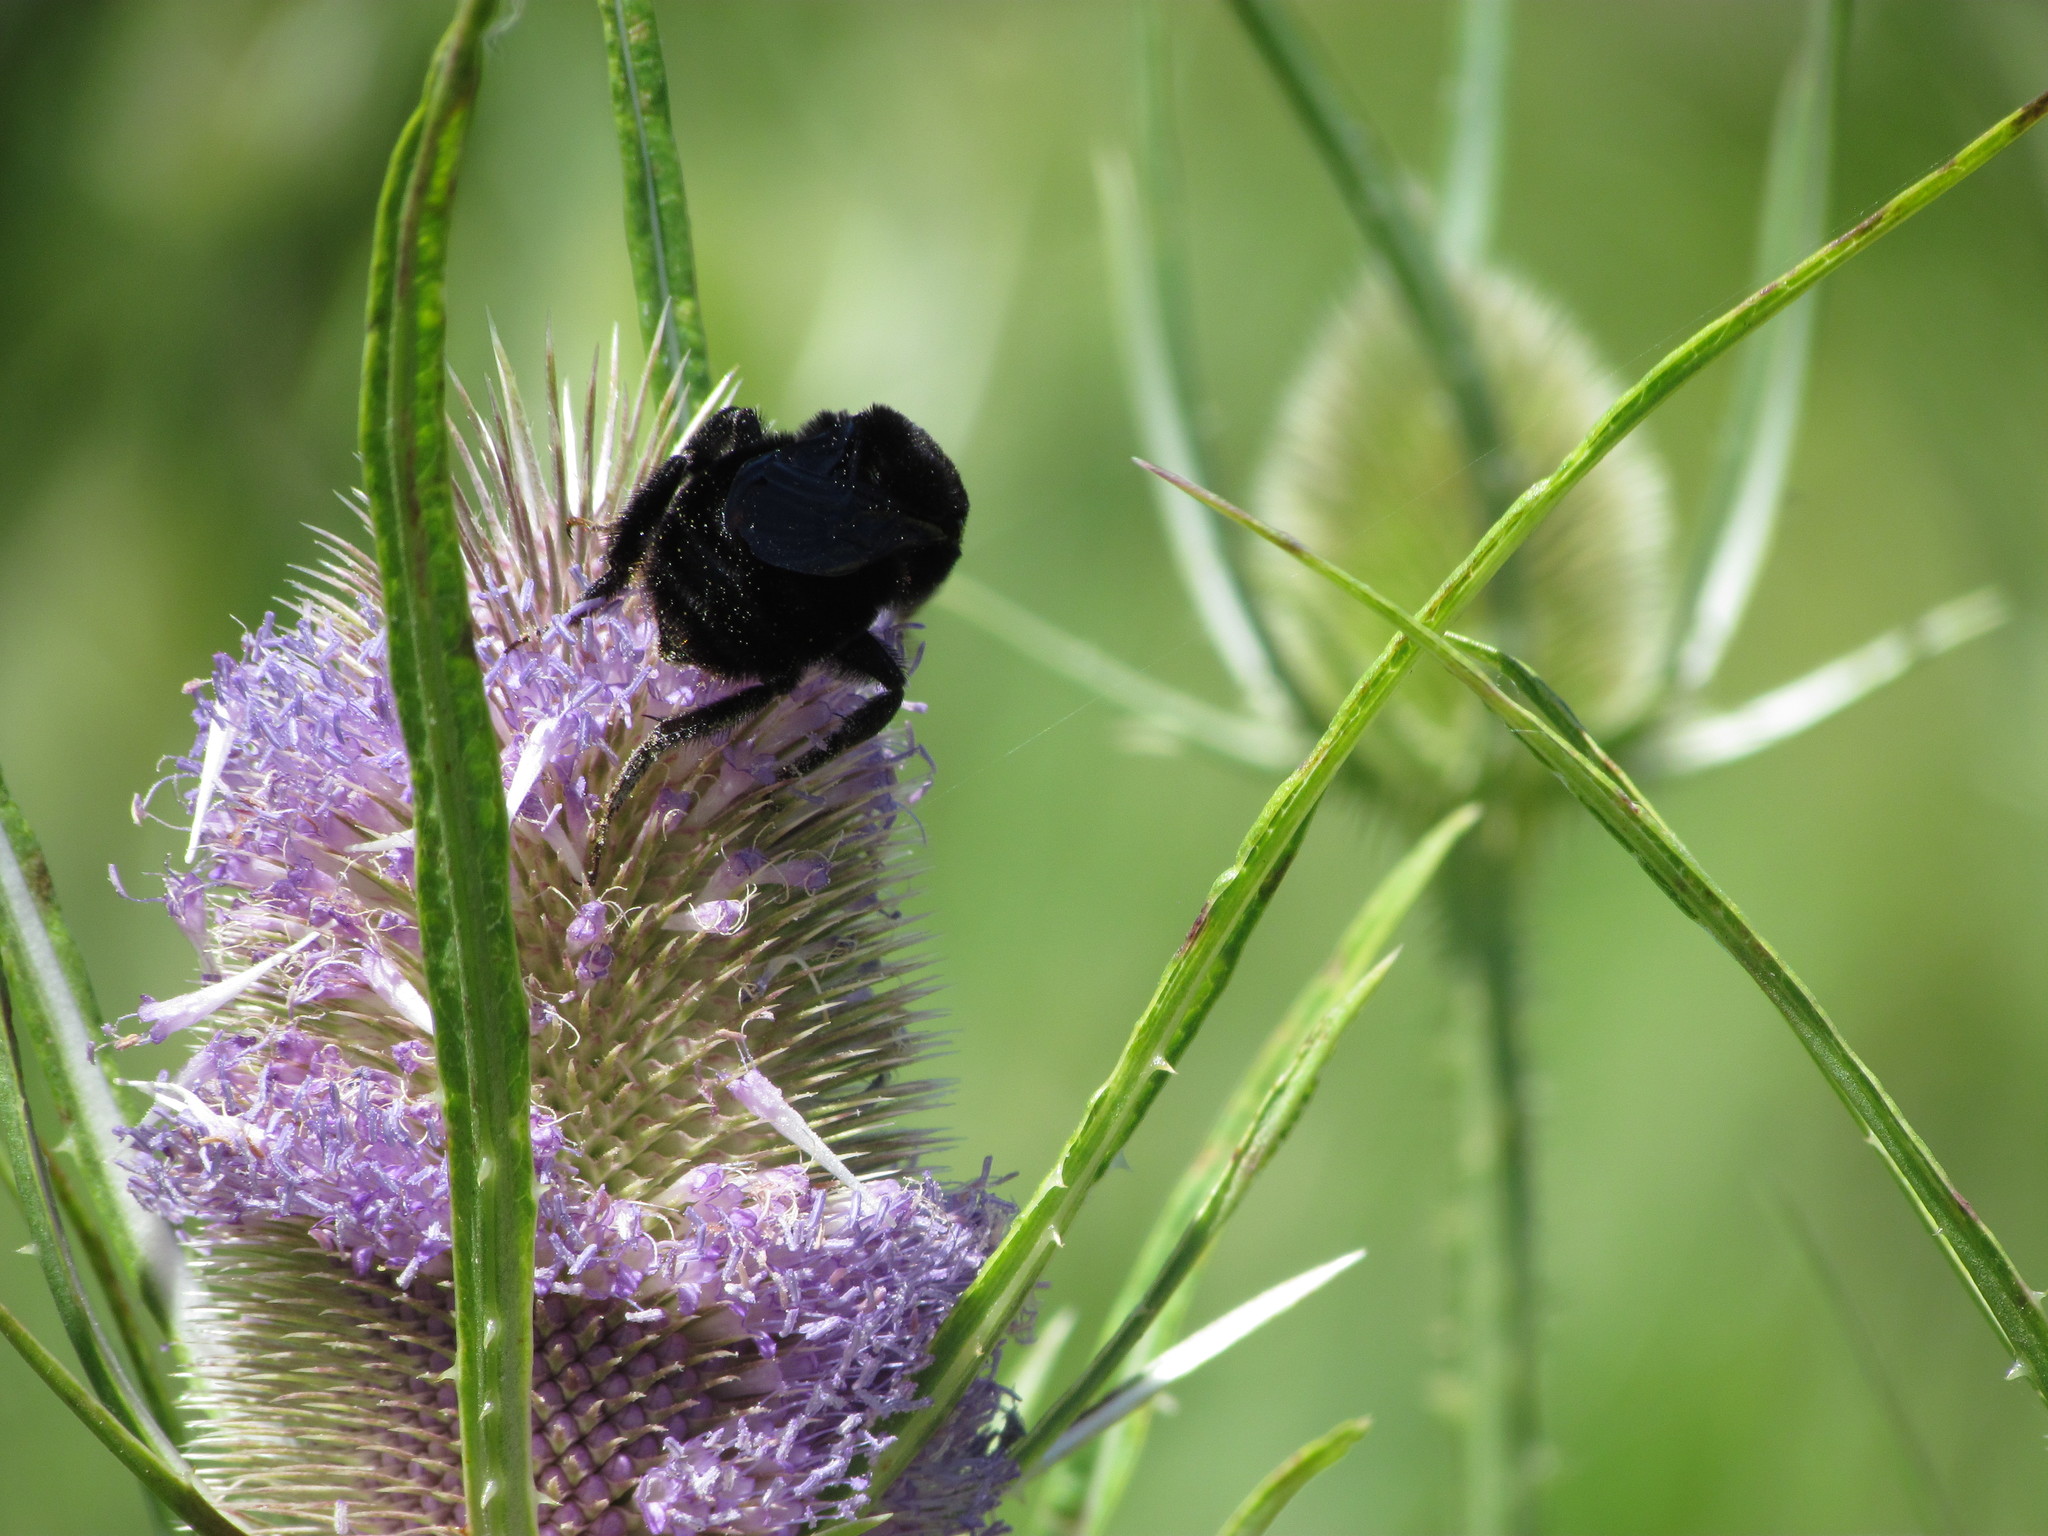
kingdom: Animalia
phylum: Arthropoda
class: Insecta
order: Hymenoptera
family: Apidae
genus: Bombus
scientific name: Bombus pauloensis
